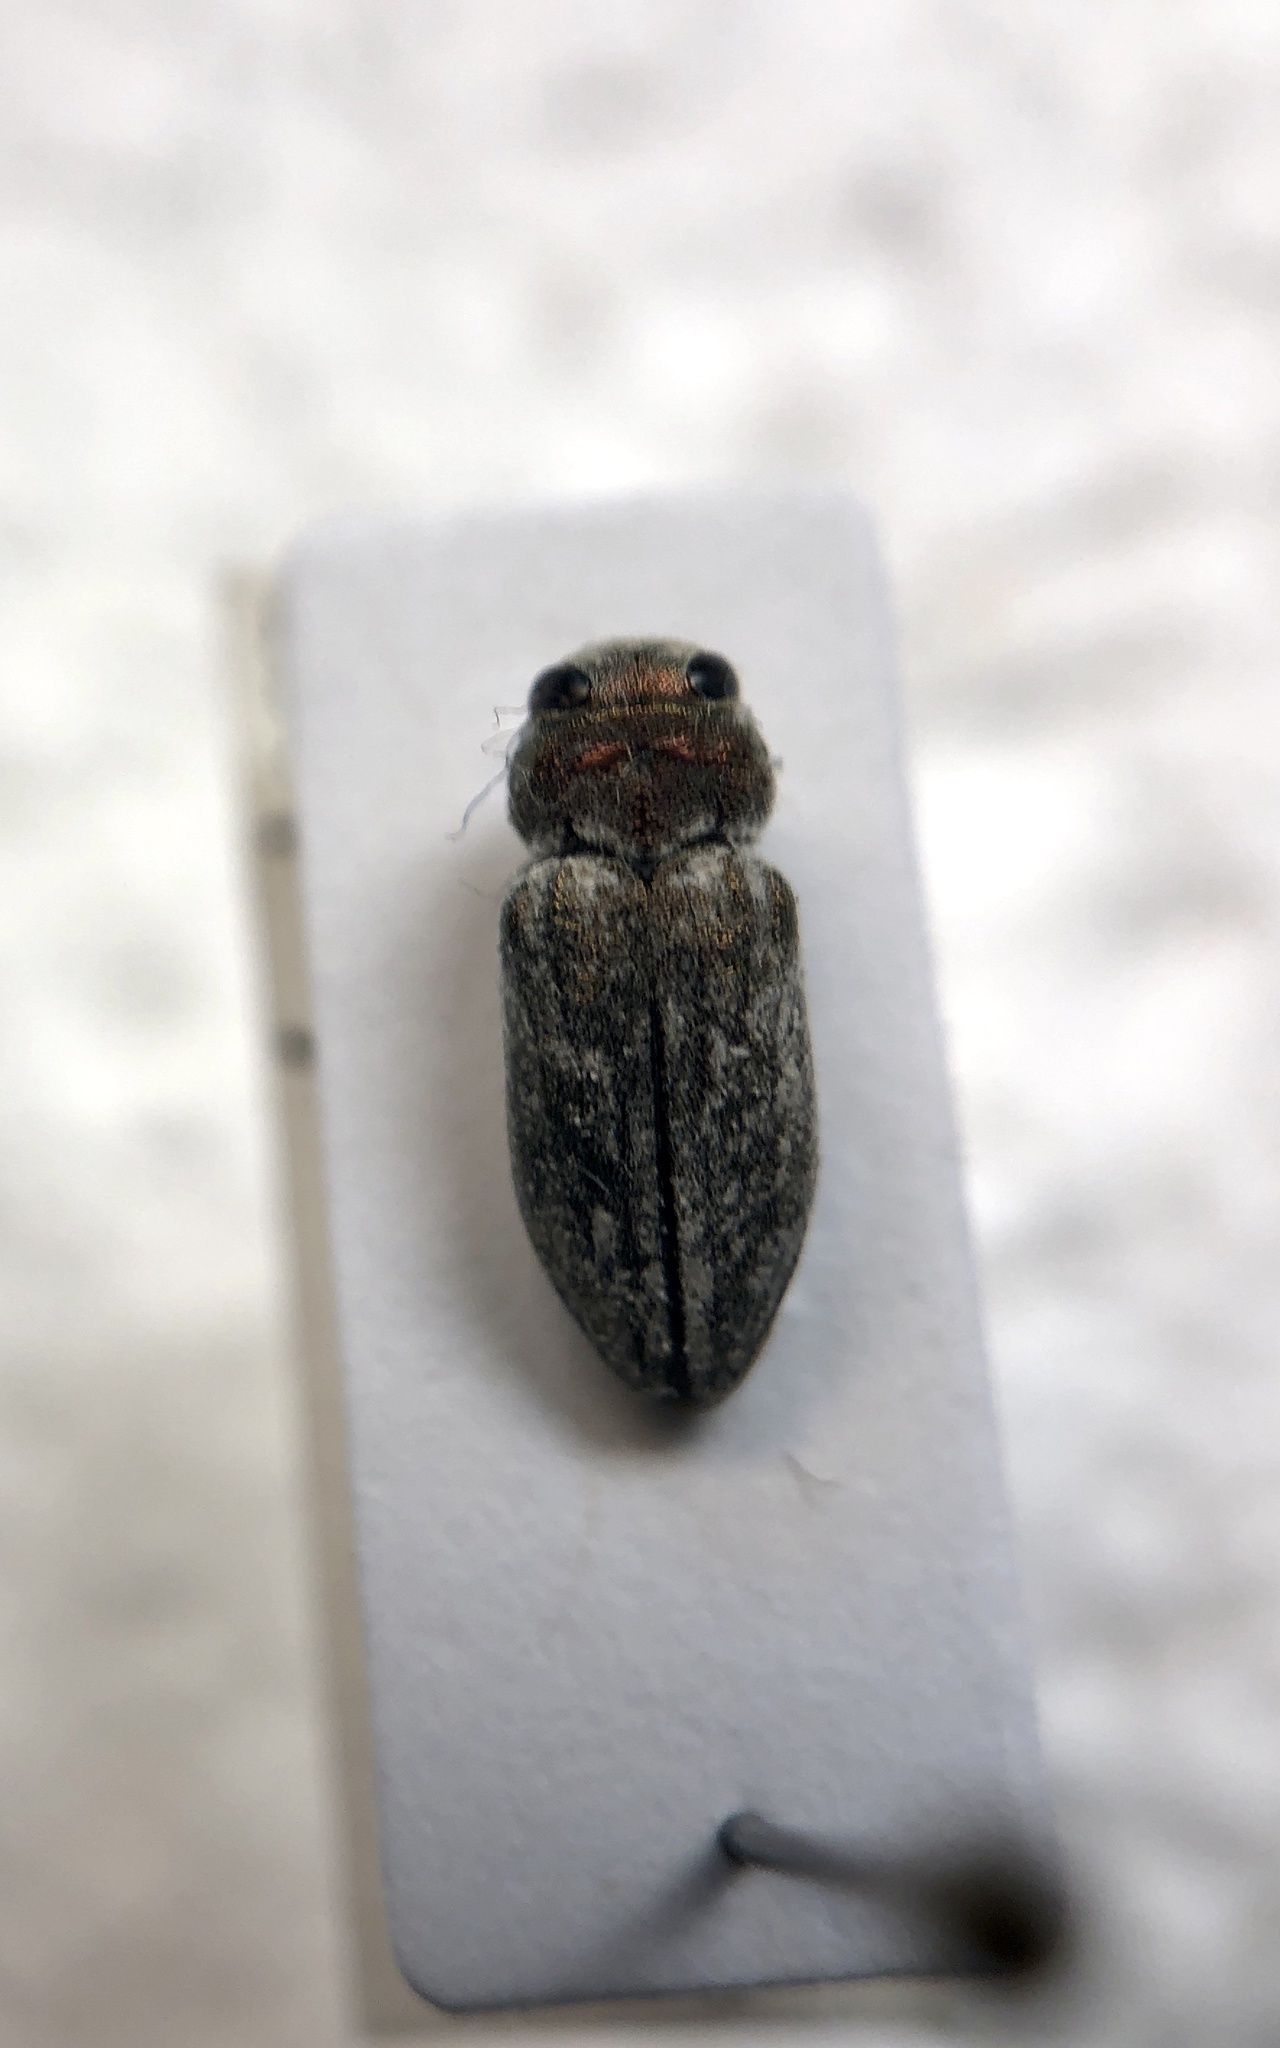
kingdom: Animalia
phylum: Arthropoda
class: Insecta
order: Coleoptera
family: Buprestidae
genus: Chrysobothris
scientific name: Chrysobothris deserta
